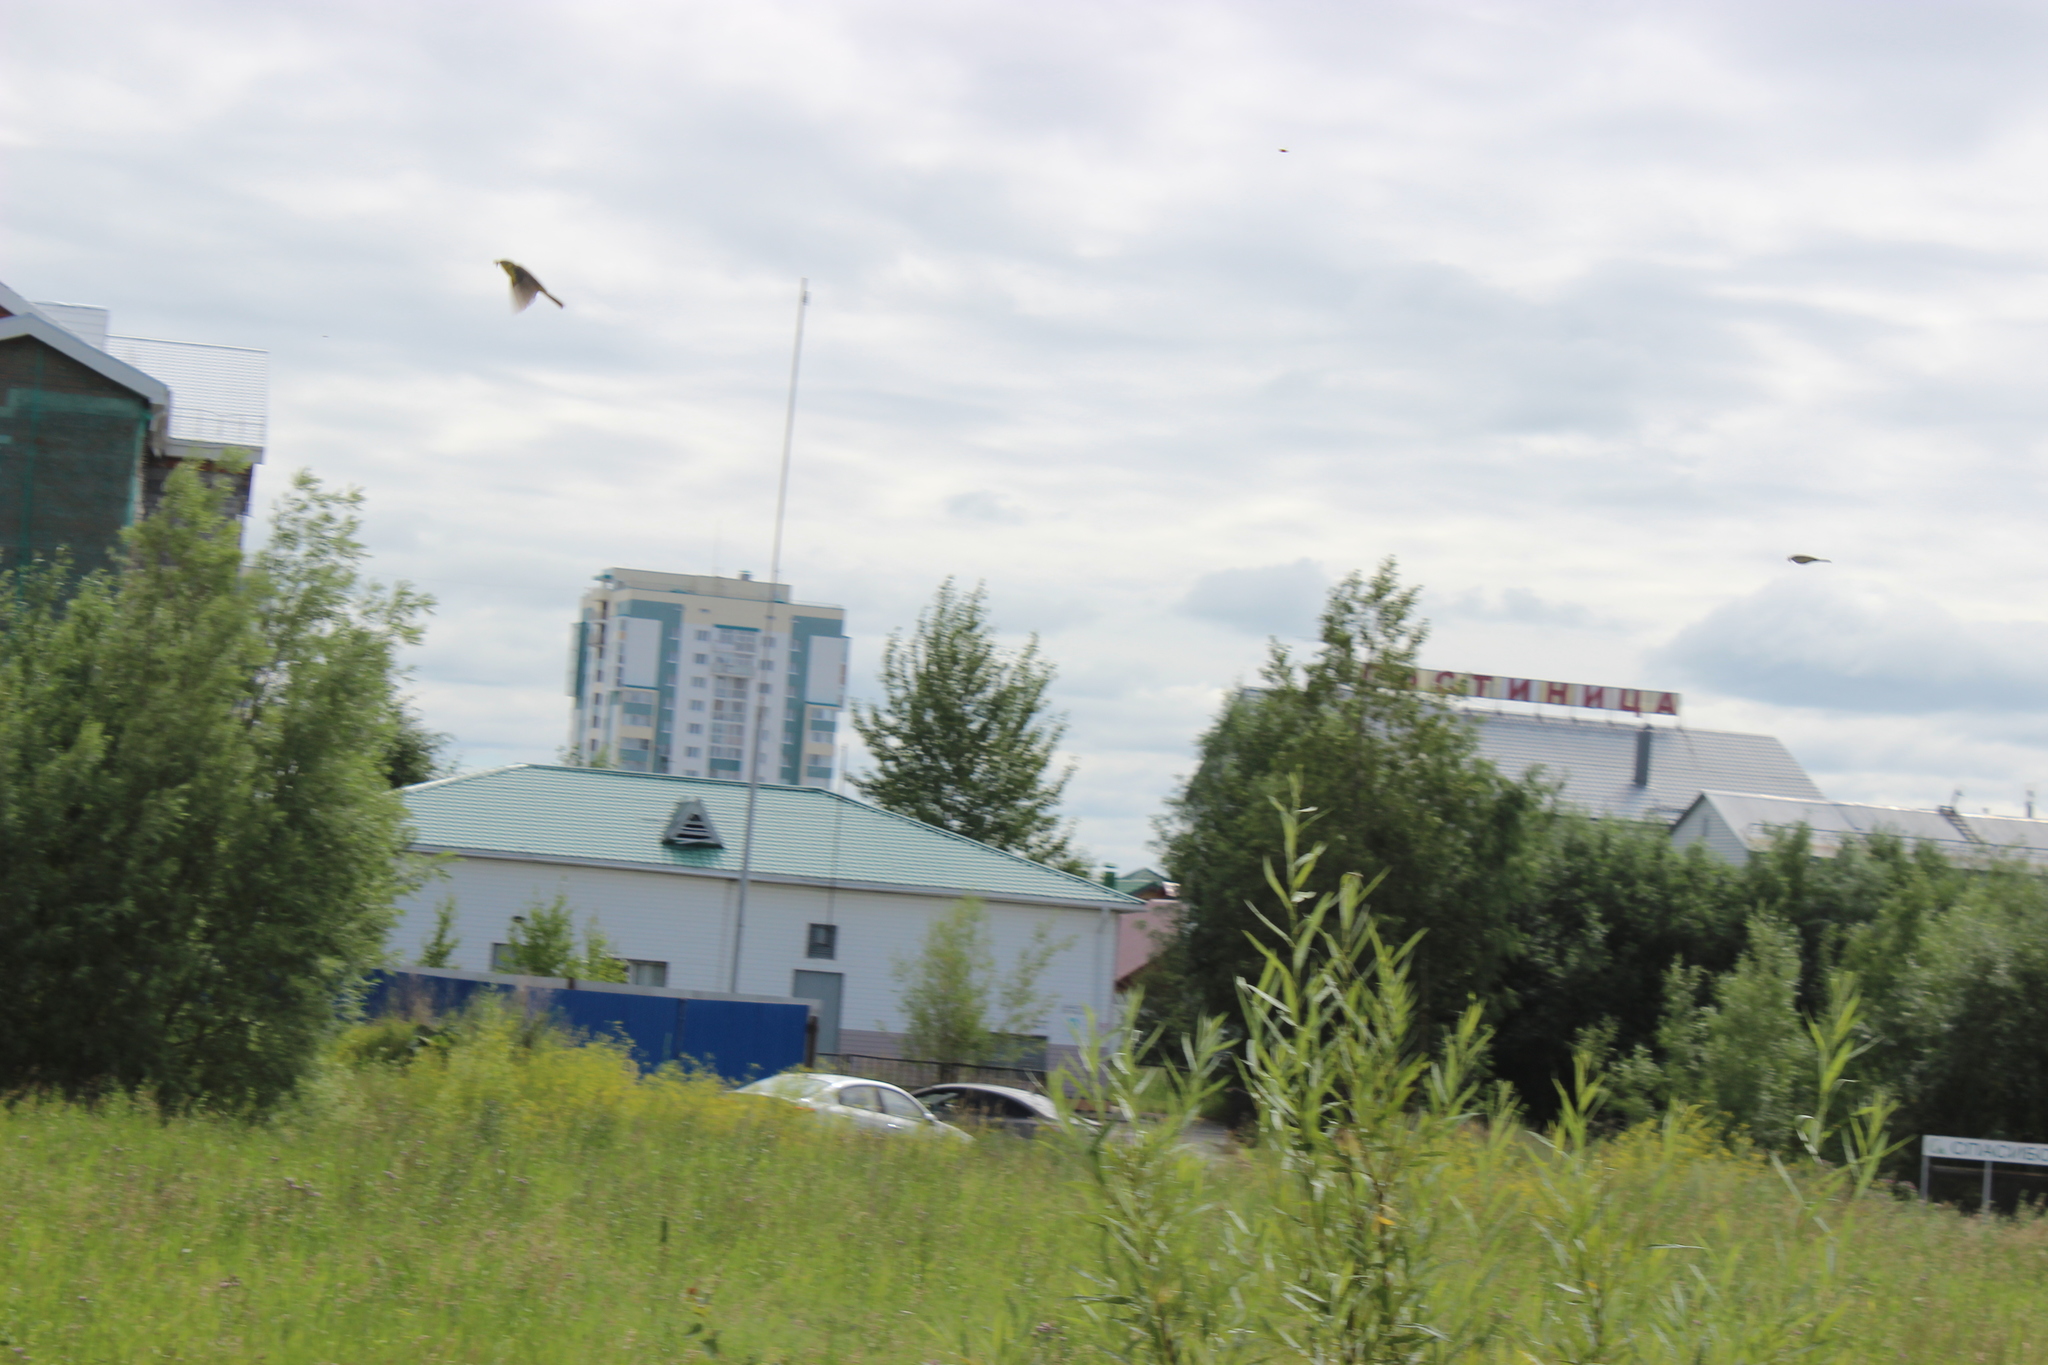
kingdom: Animalia
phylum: Chordata
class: Aves
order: Accipitriformes
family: Accipitridae
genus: Milvus
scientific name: Milvus migrans
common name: Black kite
